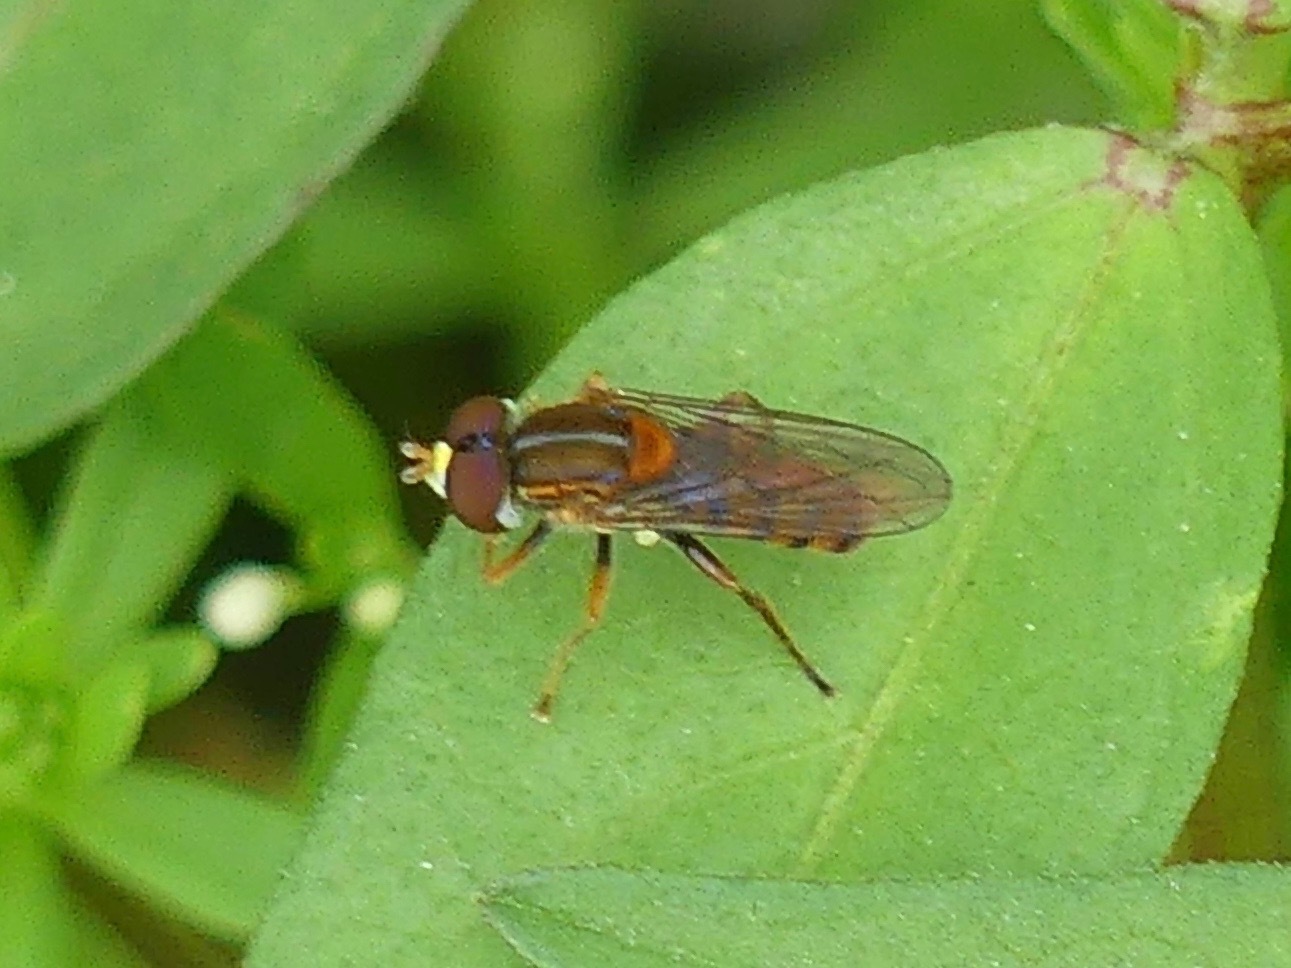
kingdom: Animalia
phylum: Arthropoda
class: Insecta
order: Diptera
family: Syrphidae
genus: Toxomerus
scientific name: Toxomerus jussiaeae
